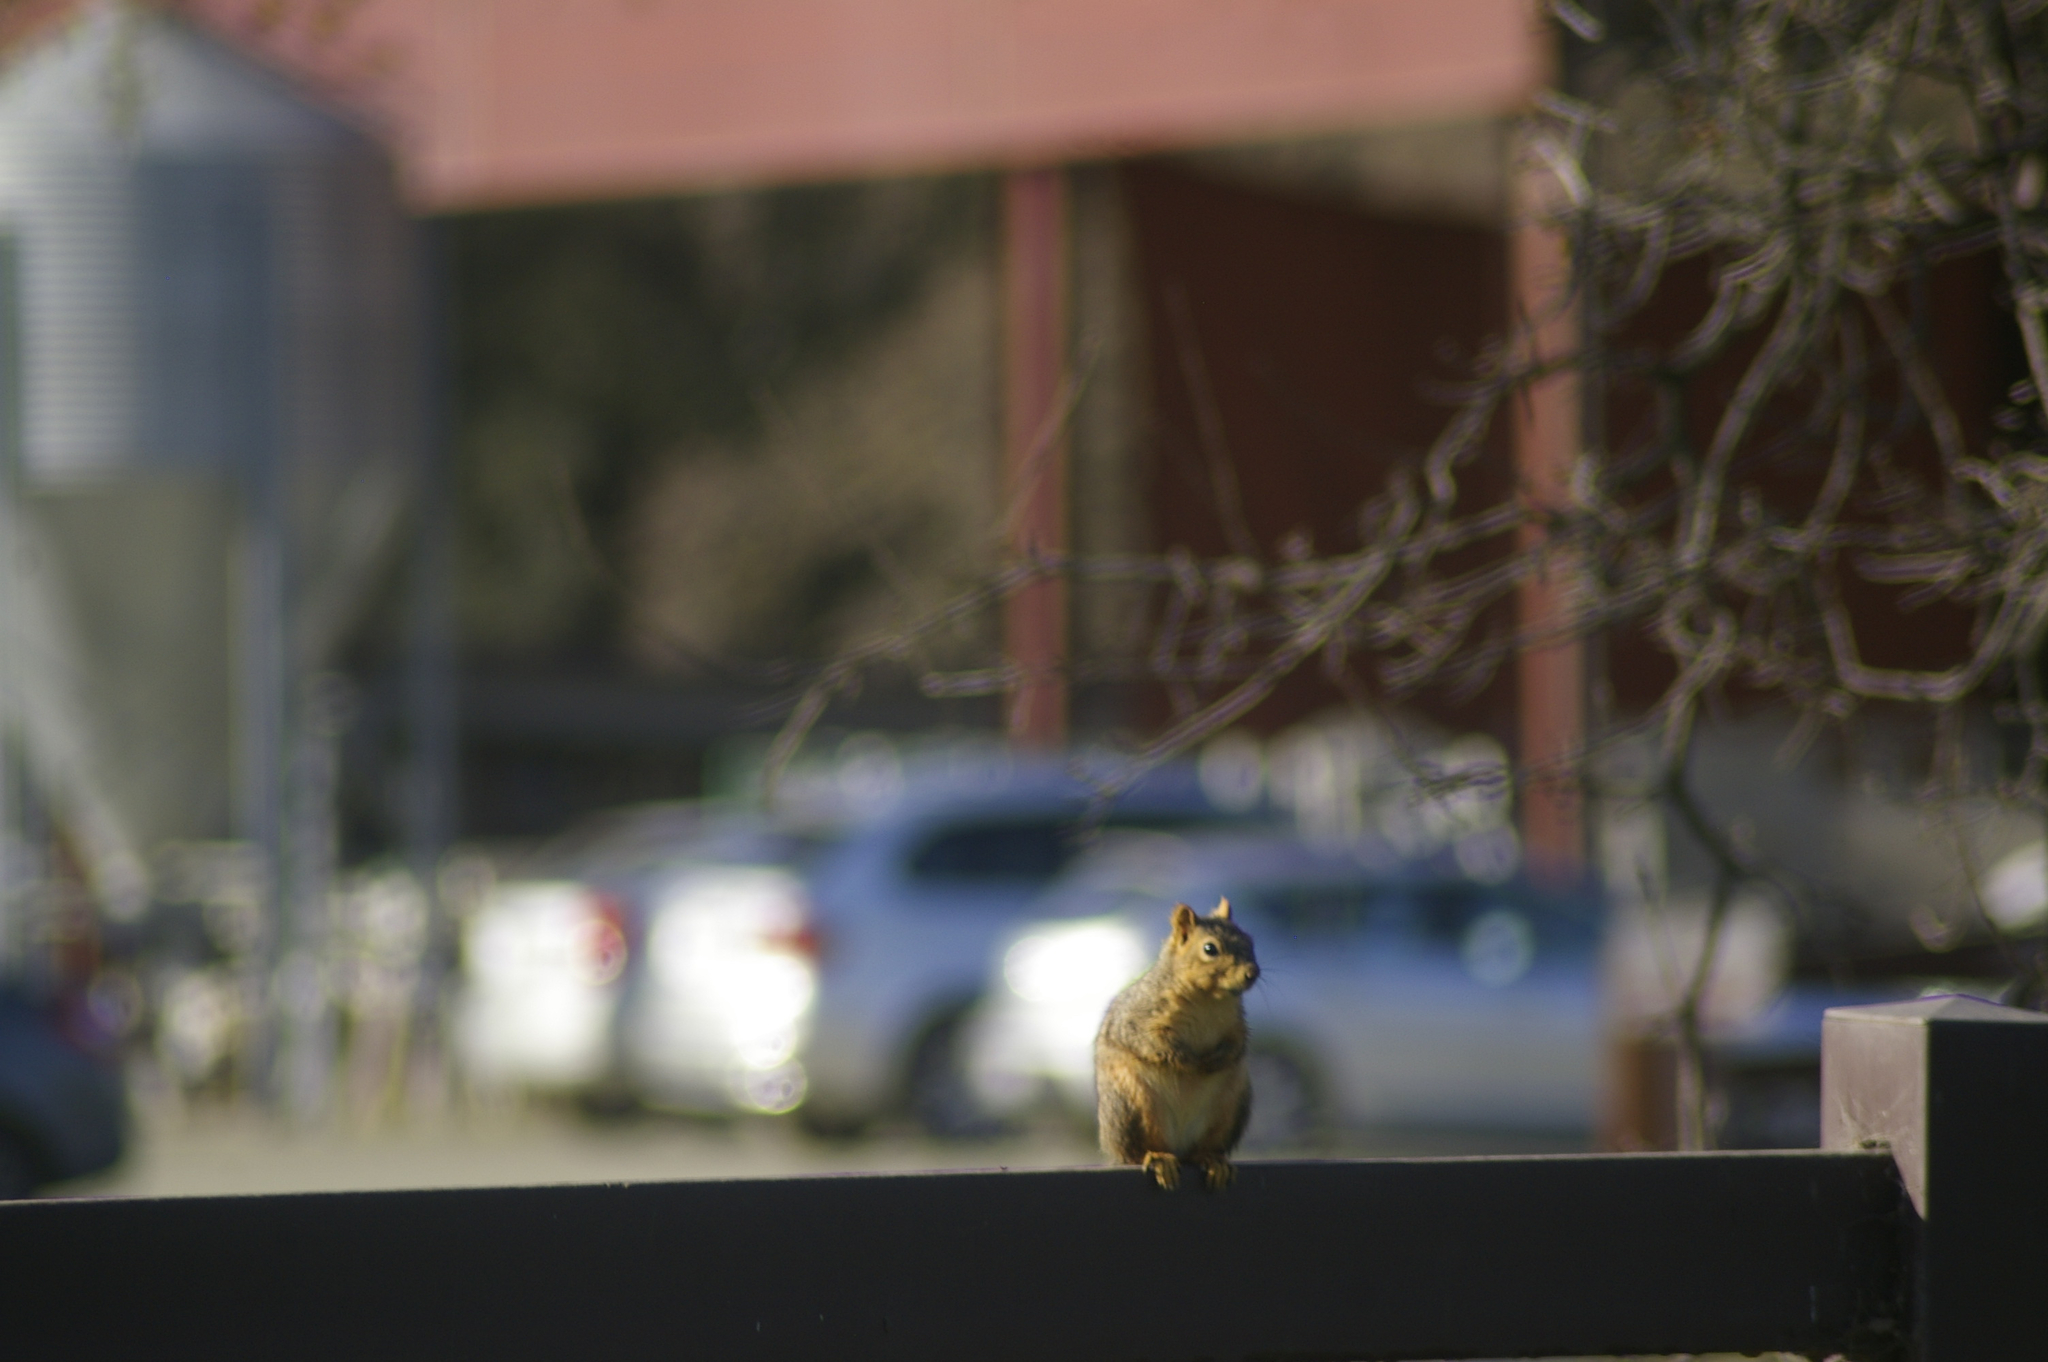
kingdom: Animalia
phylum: Chordata
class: Mammalia
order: Rodentia
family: Sciuridae
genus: Sciurus
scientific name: Sciurus niger
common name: Fox squirrel
